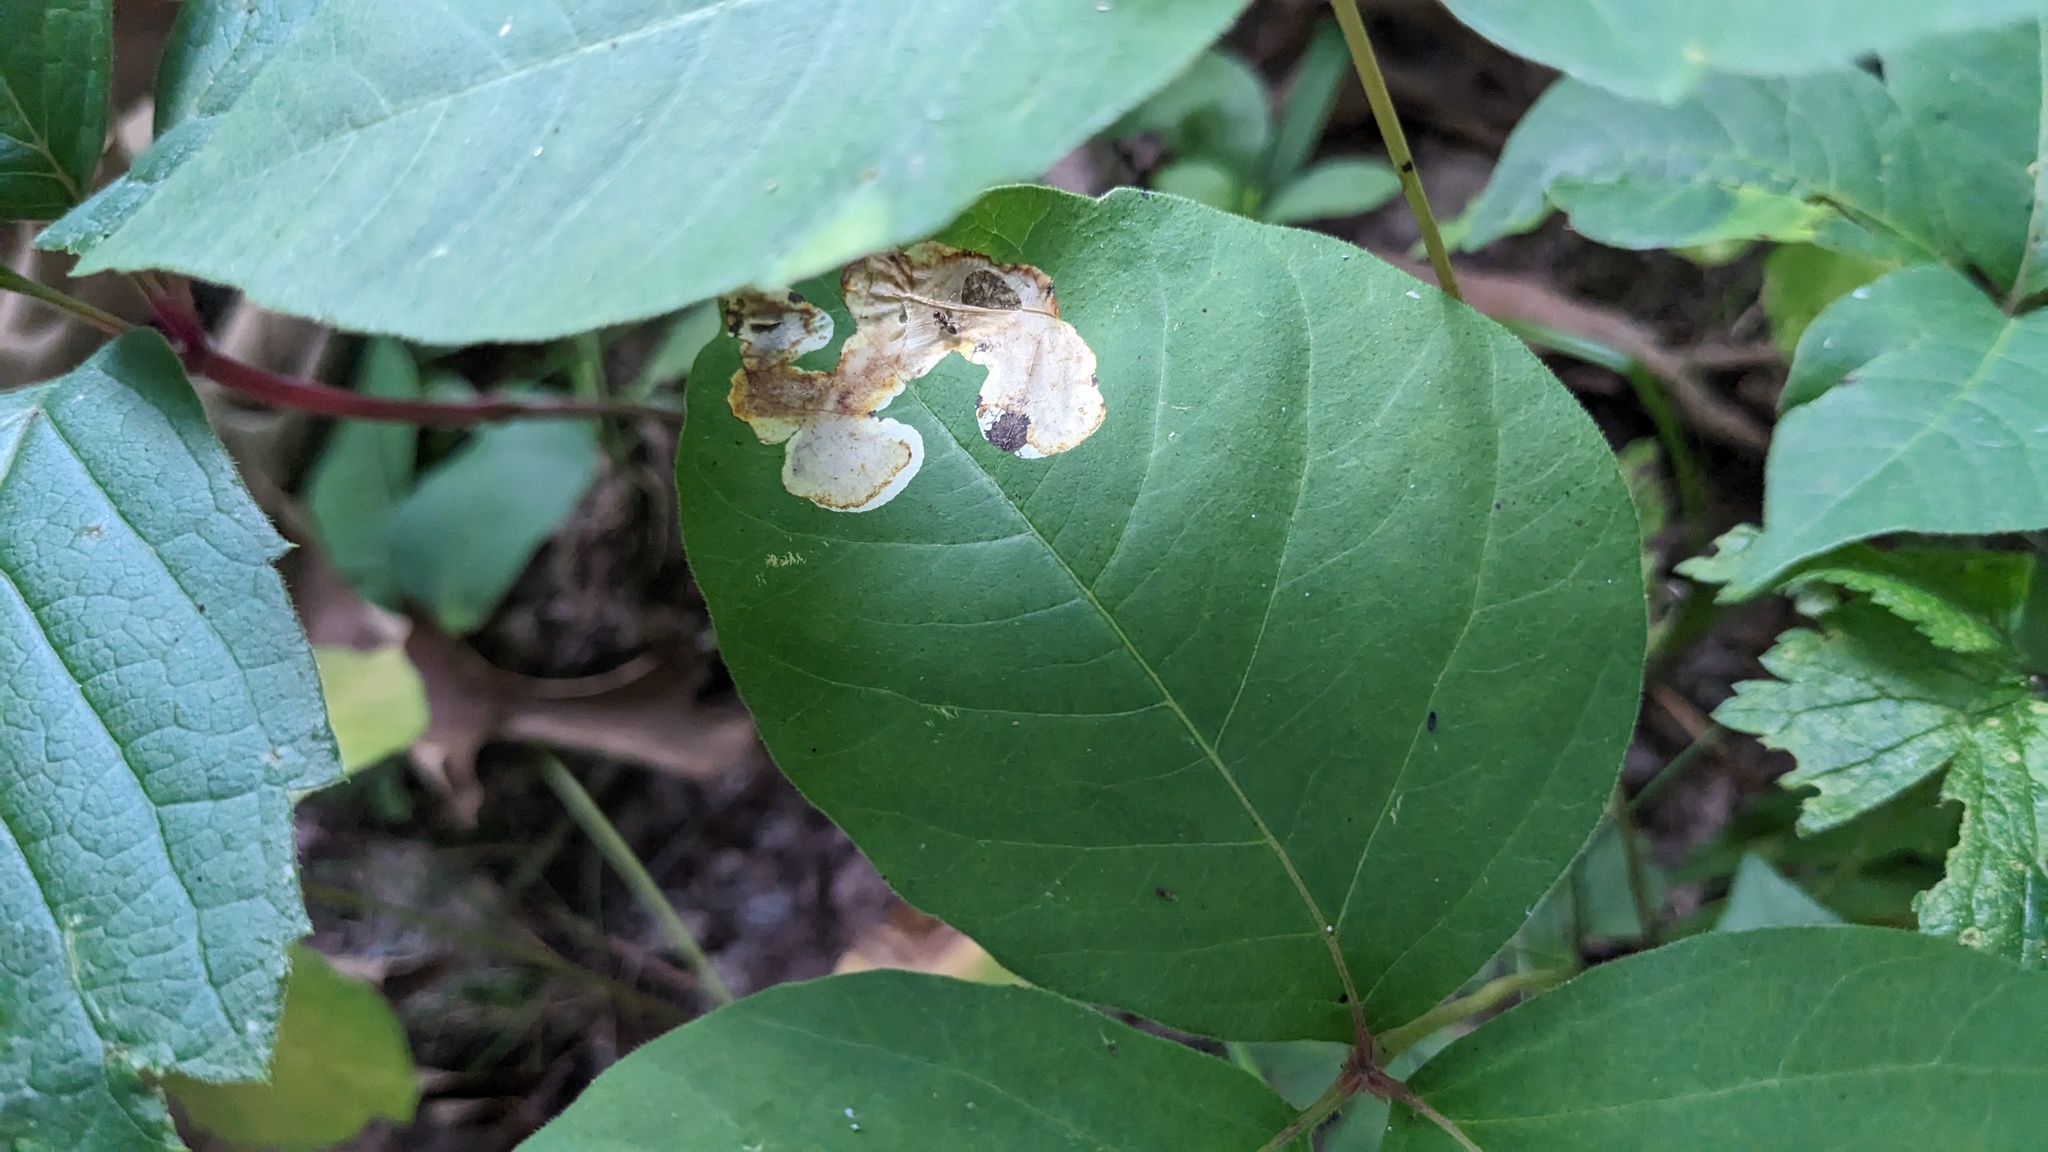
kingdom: Animalia
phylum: Arthropoda
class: Insecta
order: Lepidoptera
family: Gracillariidae
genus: Cameraria
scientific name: Cameraria guttifinitella
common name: Poison ivy leaf-miner moth
